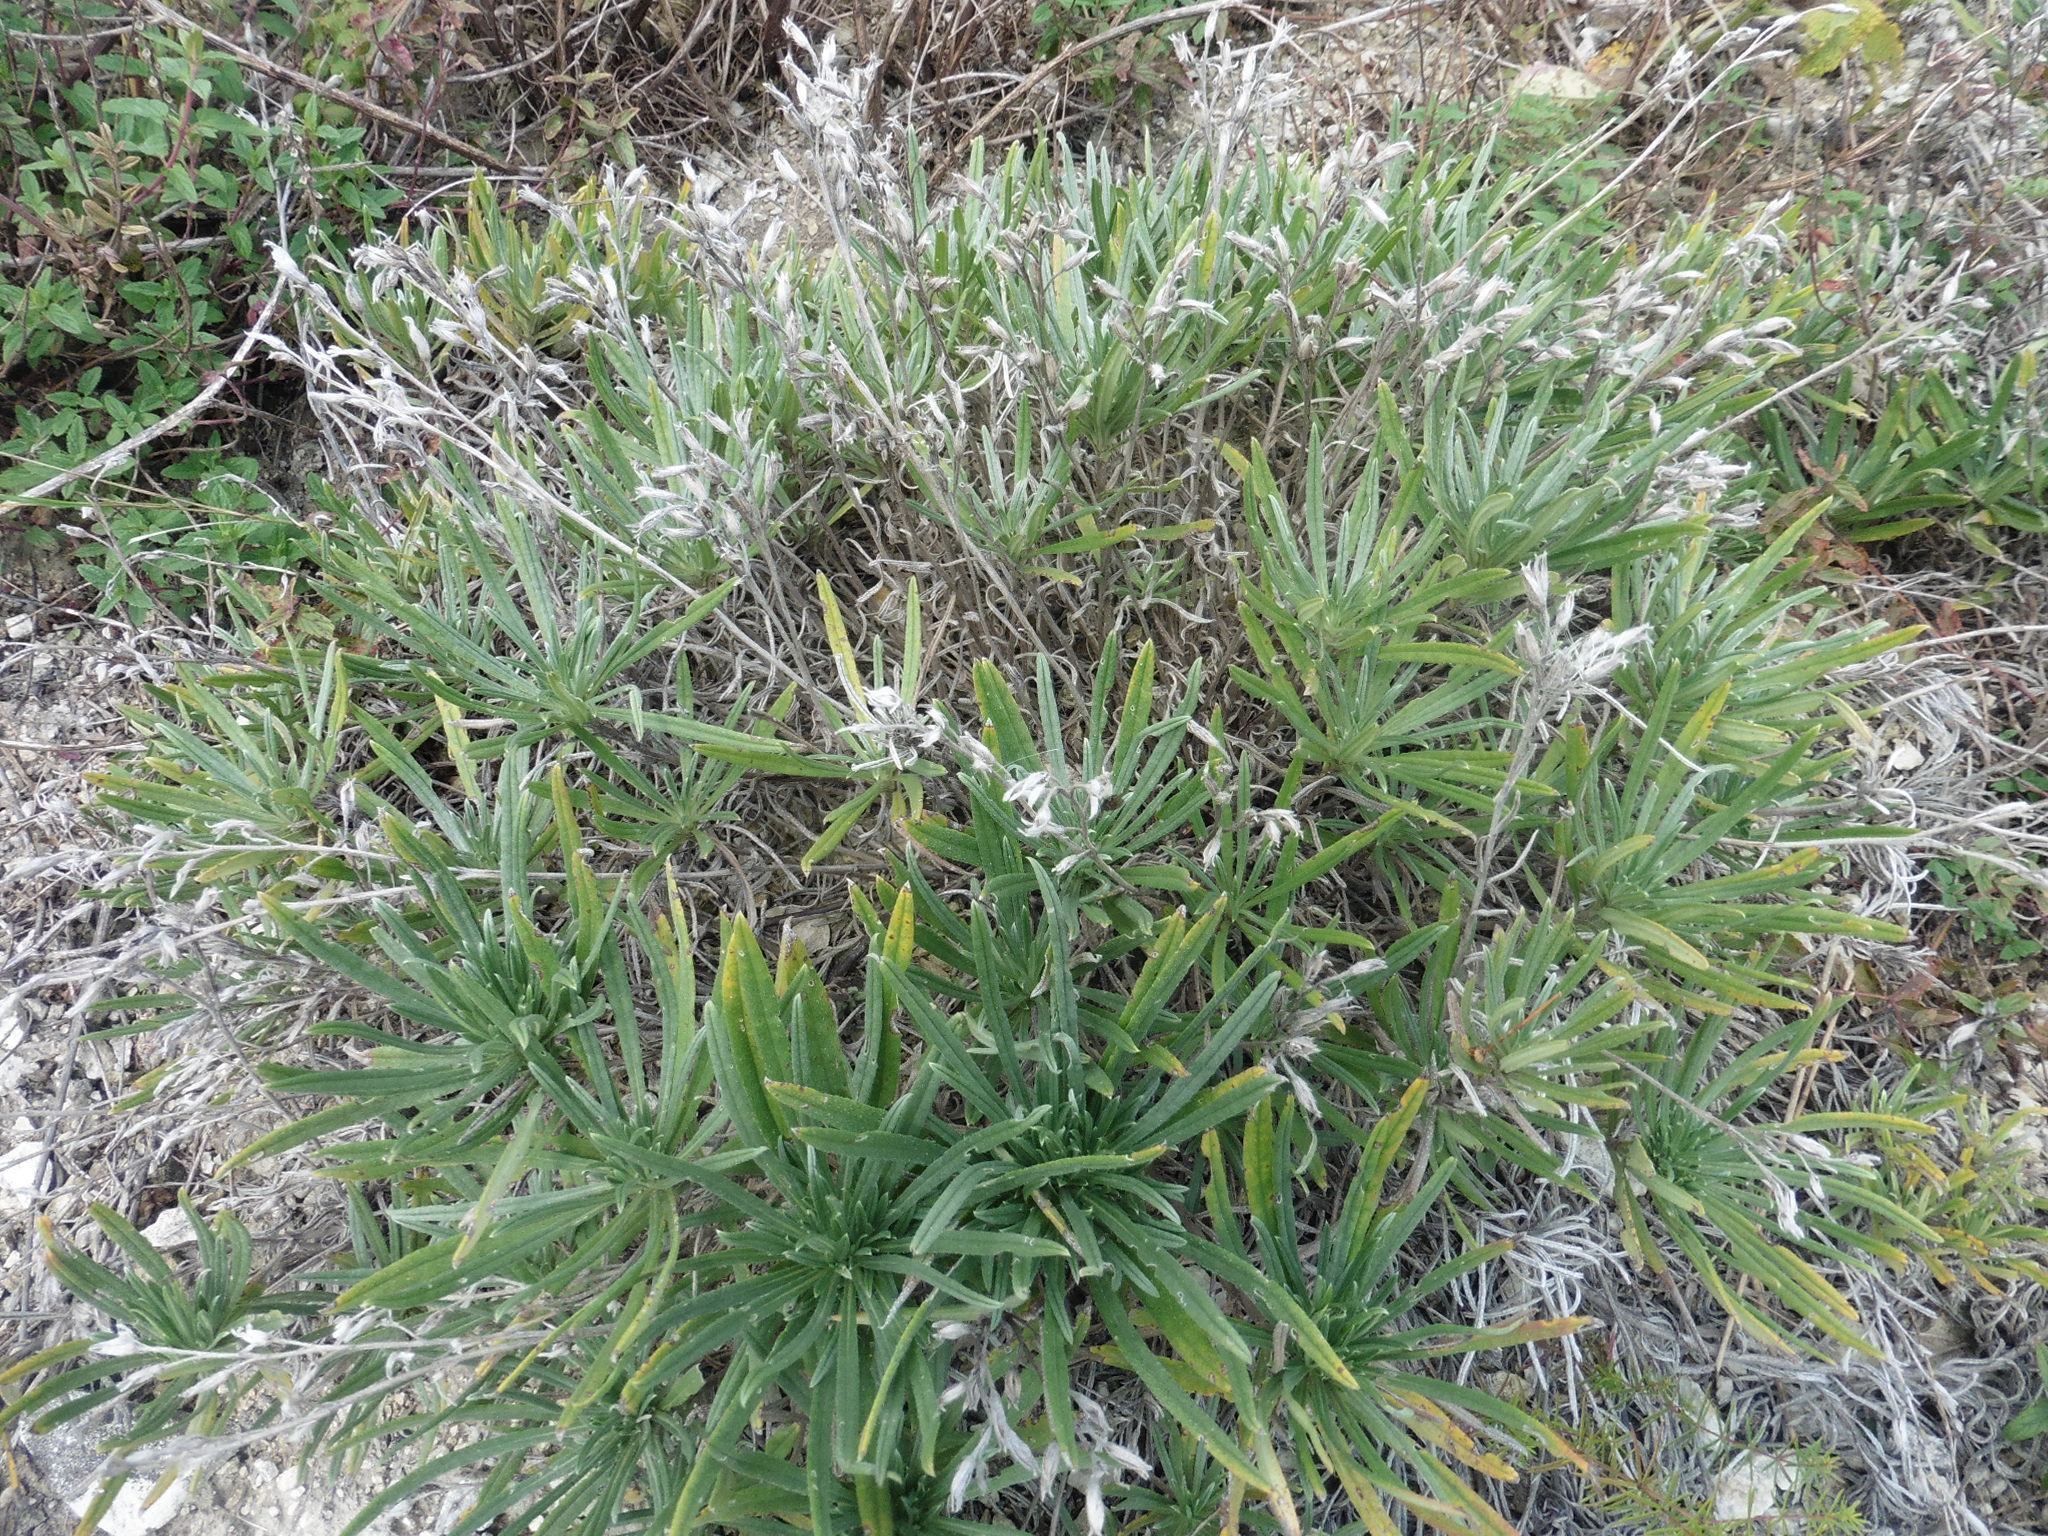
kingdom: Plantae
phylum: Tracheophyta
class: Magnoliopsida
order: Boraginales
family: Boraginaceae
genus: Onosma
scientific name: Onosma simplicissima
